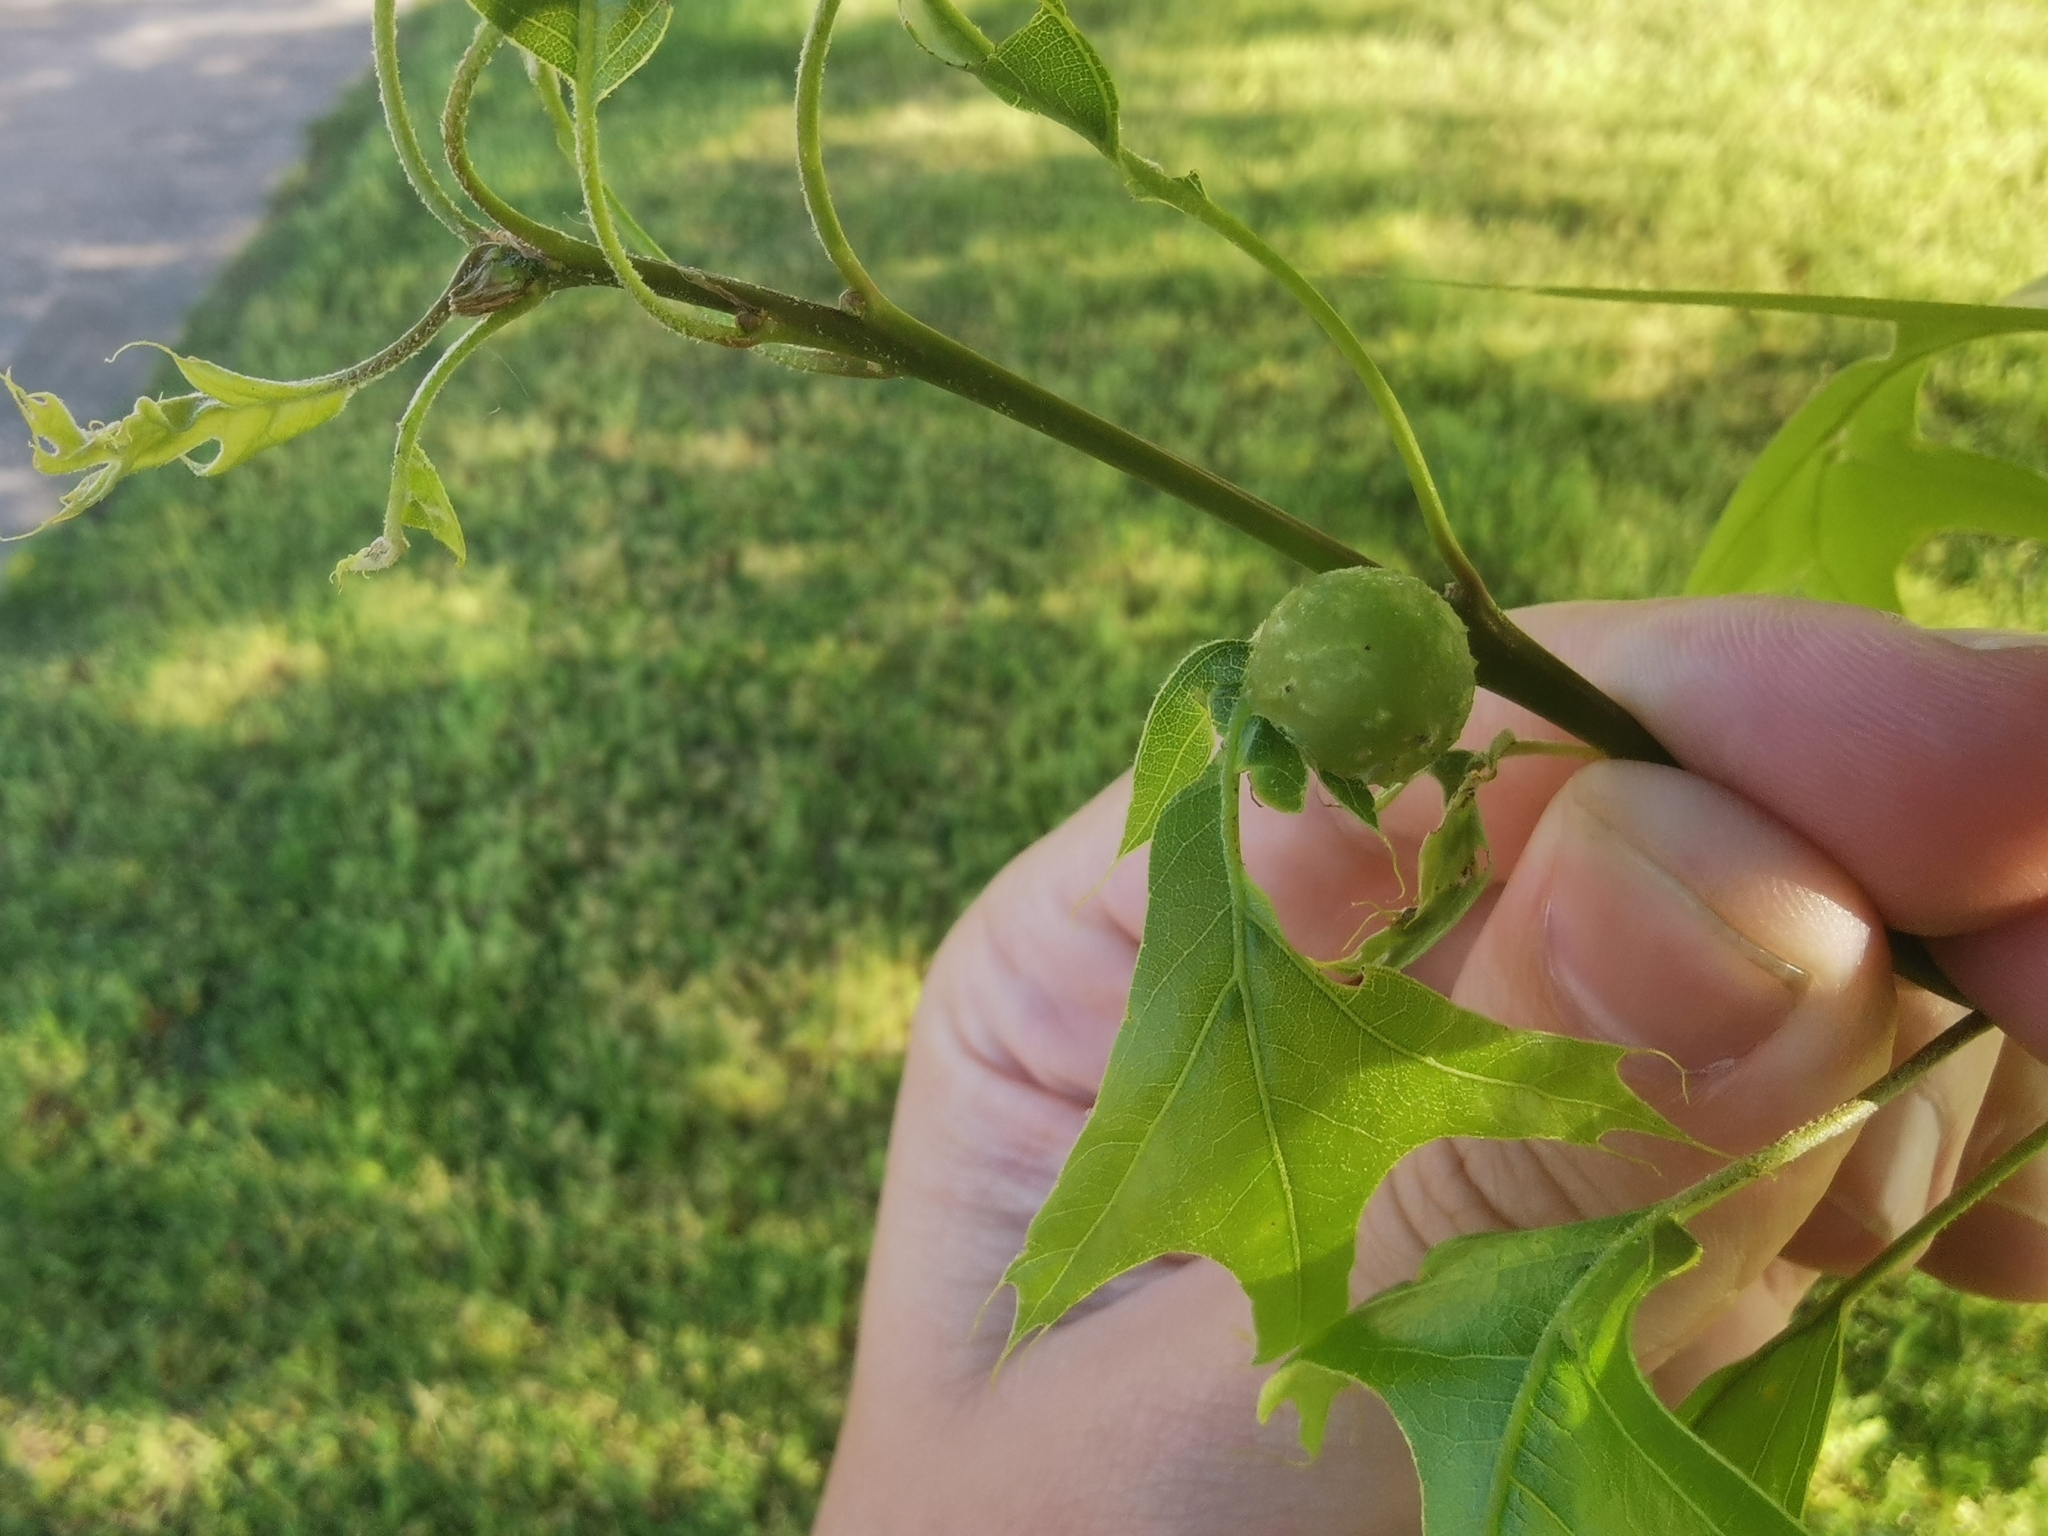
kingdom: Animalia
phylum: Arthropoda
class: Insecta
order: Hymenoptera
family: Cynipidae
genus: Dryocosmus
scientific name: Dryocosmus quercuspalustris
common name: Succulent oak gall wasp
